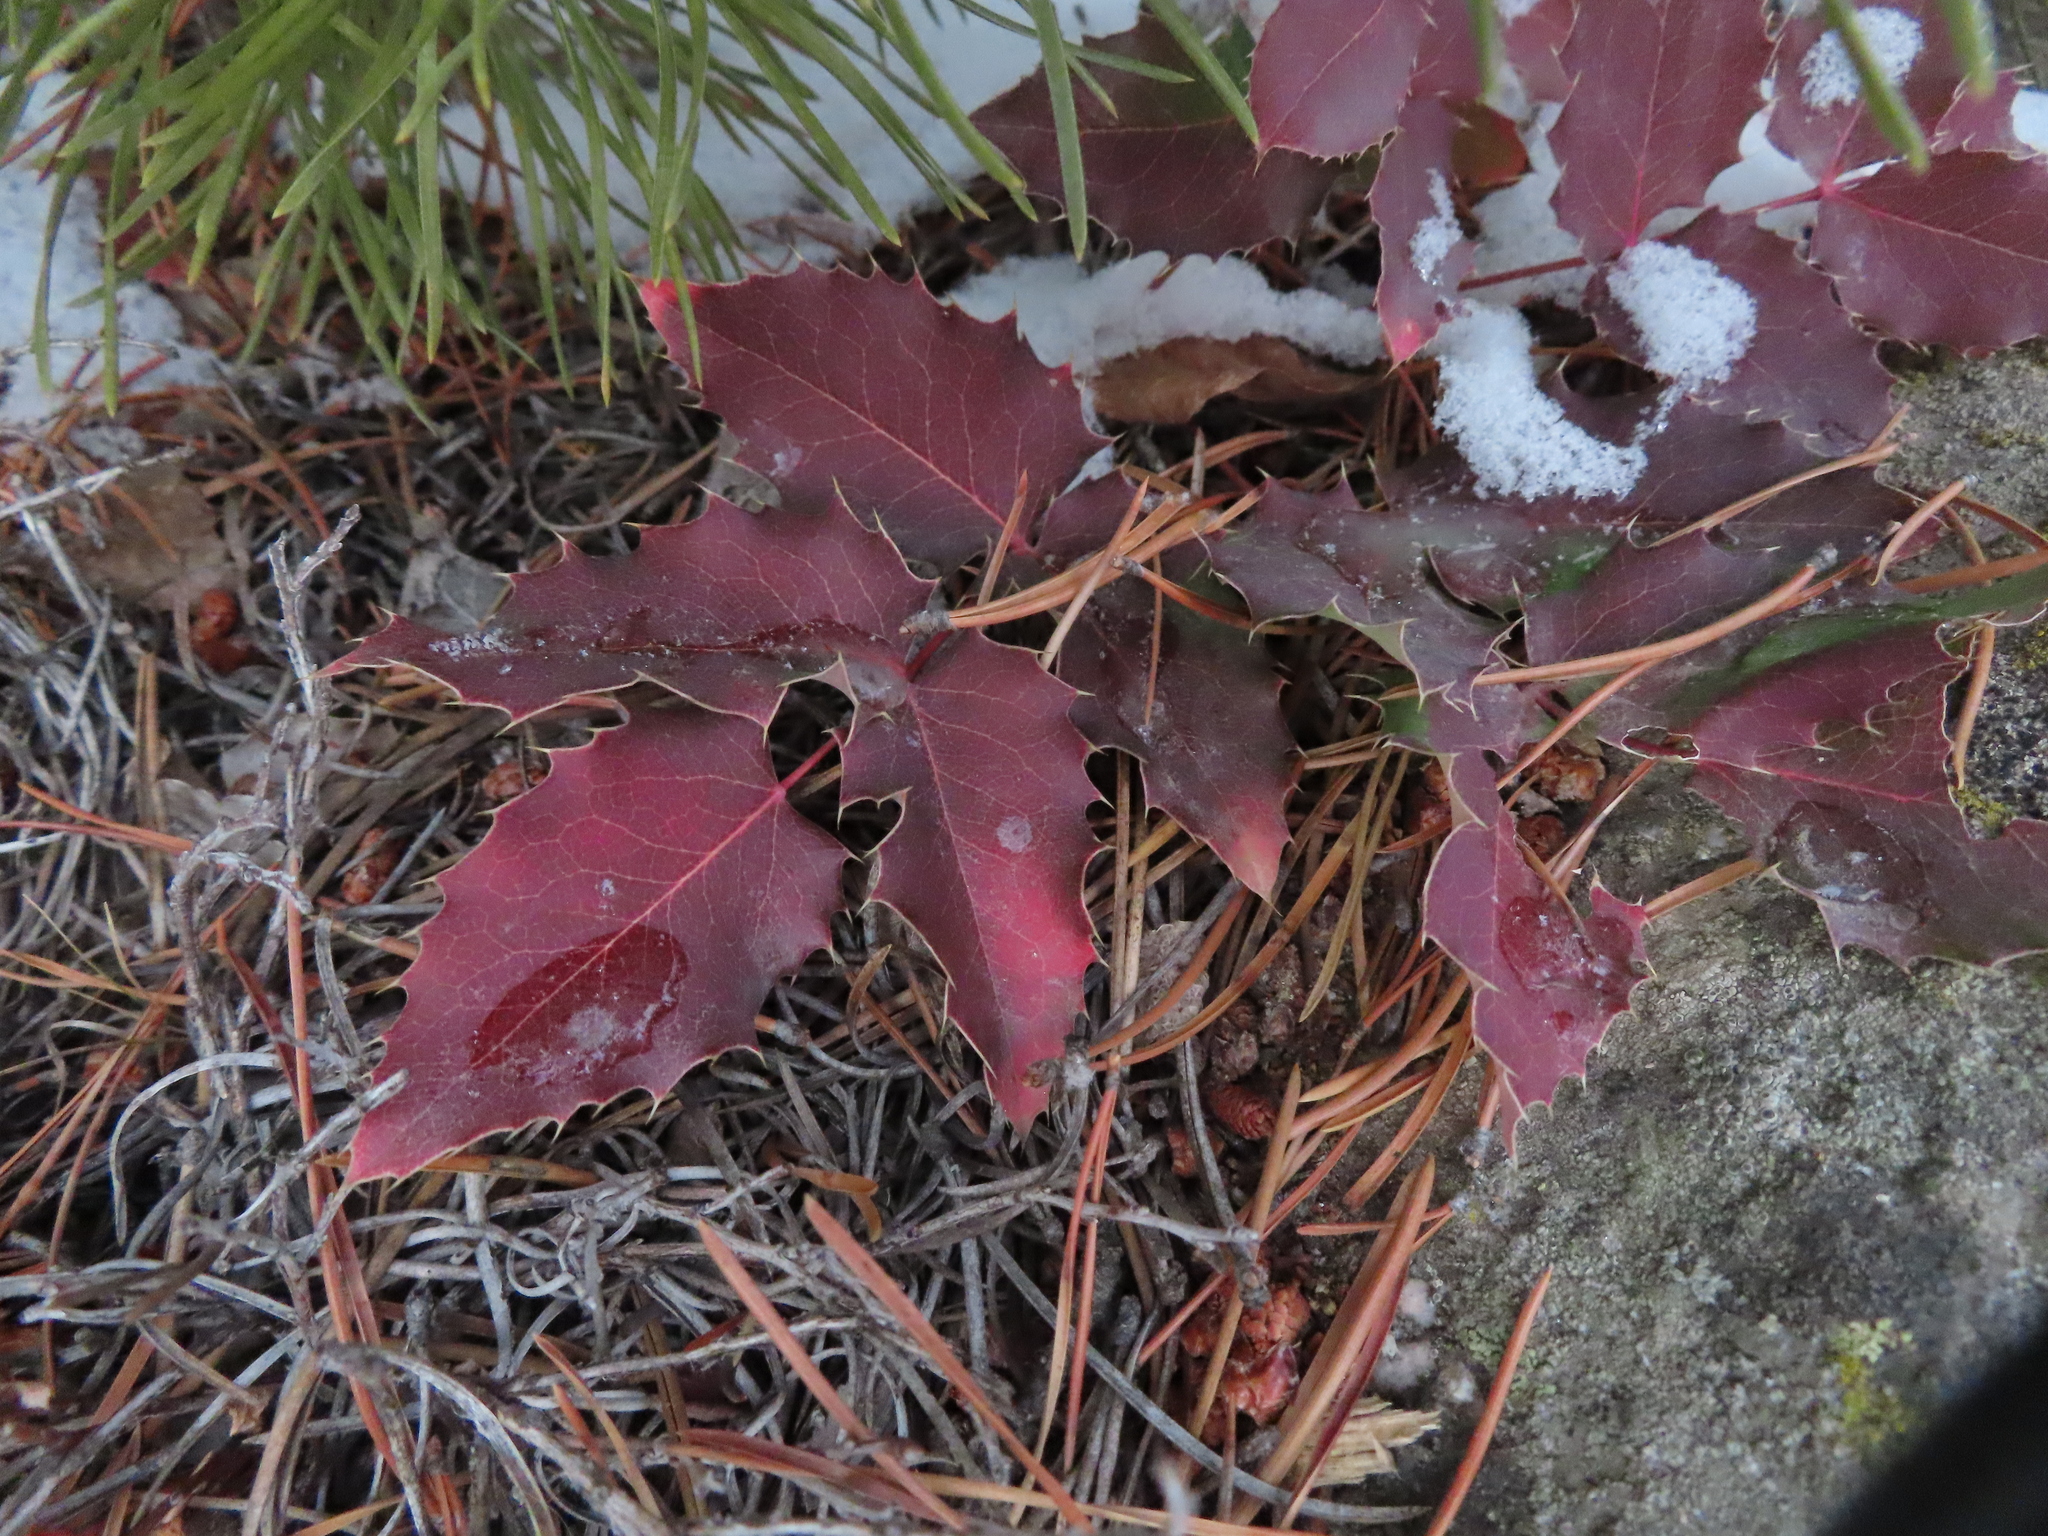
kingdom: Plantae
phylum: Tracheophyta
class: Magnoliopsida
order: Ranunculales
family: Berberidaceae
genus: Mahonia
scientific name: Mahonia repens
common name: Creeping oregon-grape
